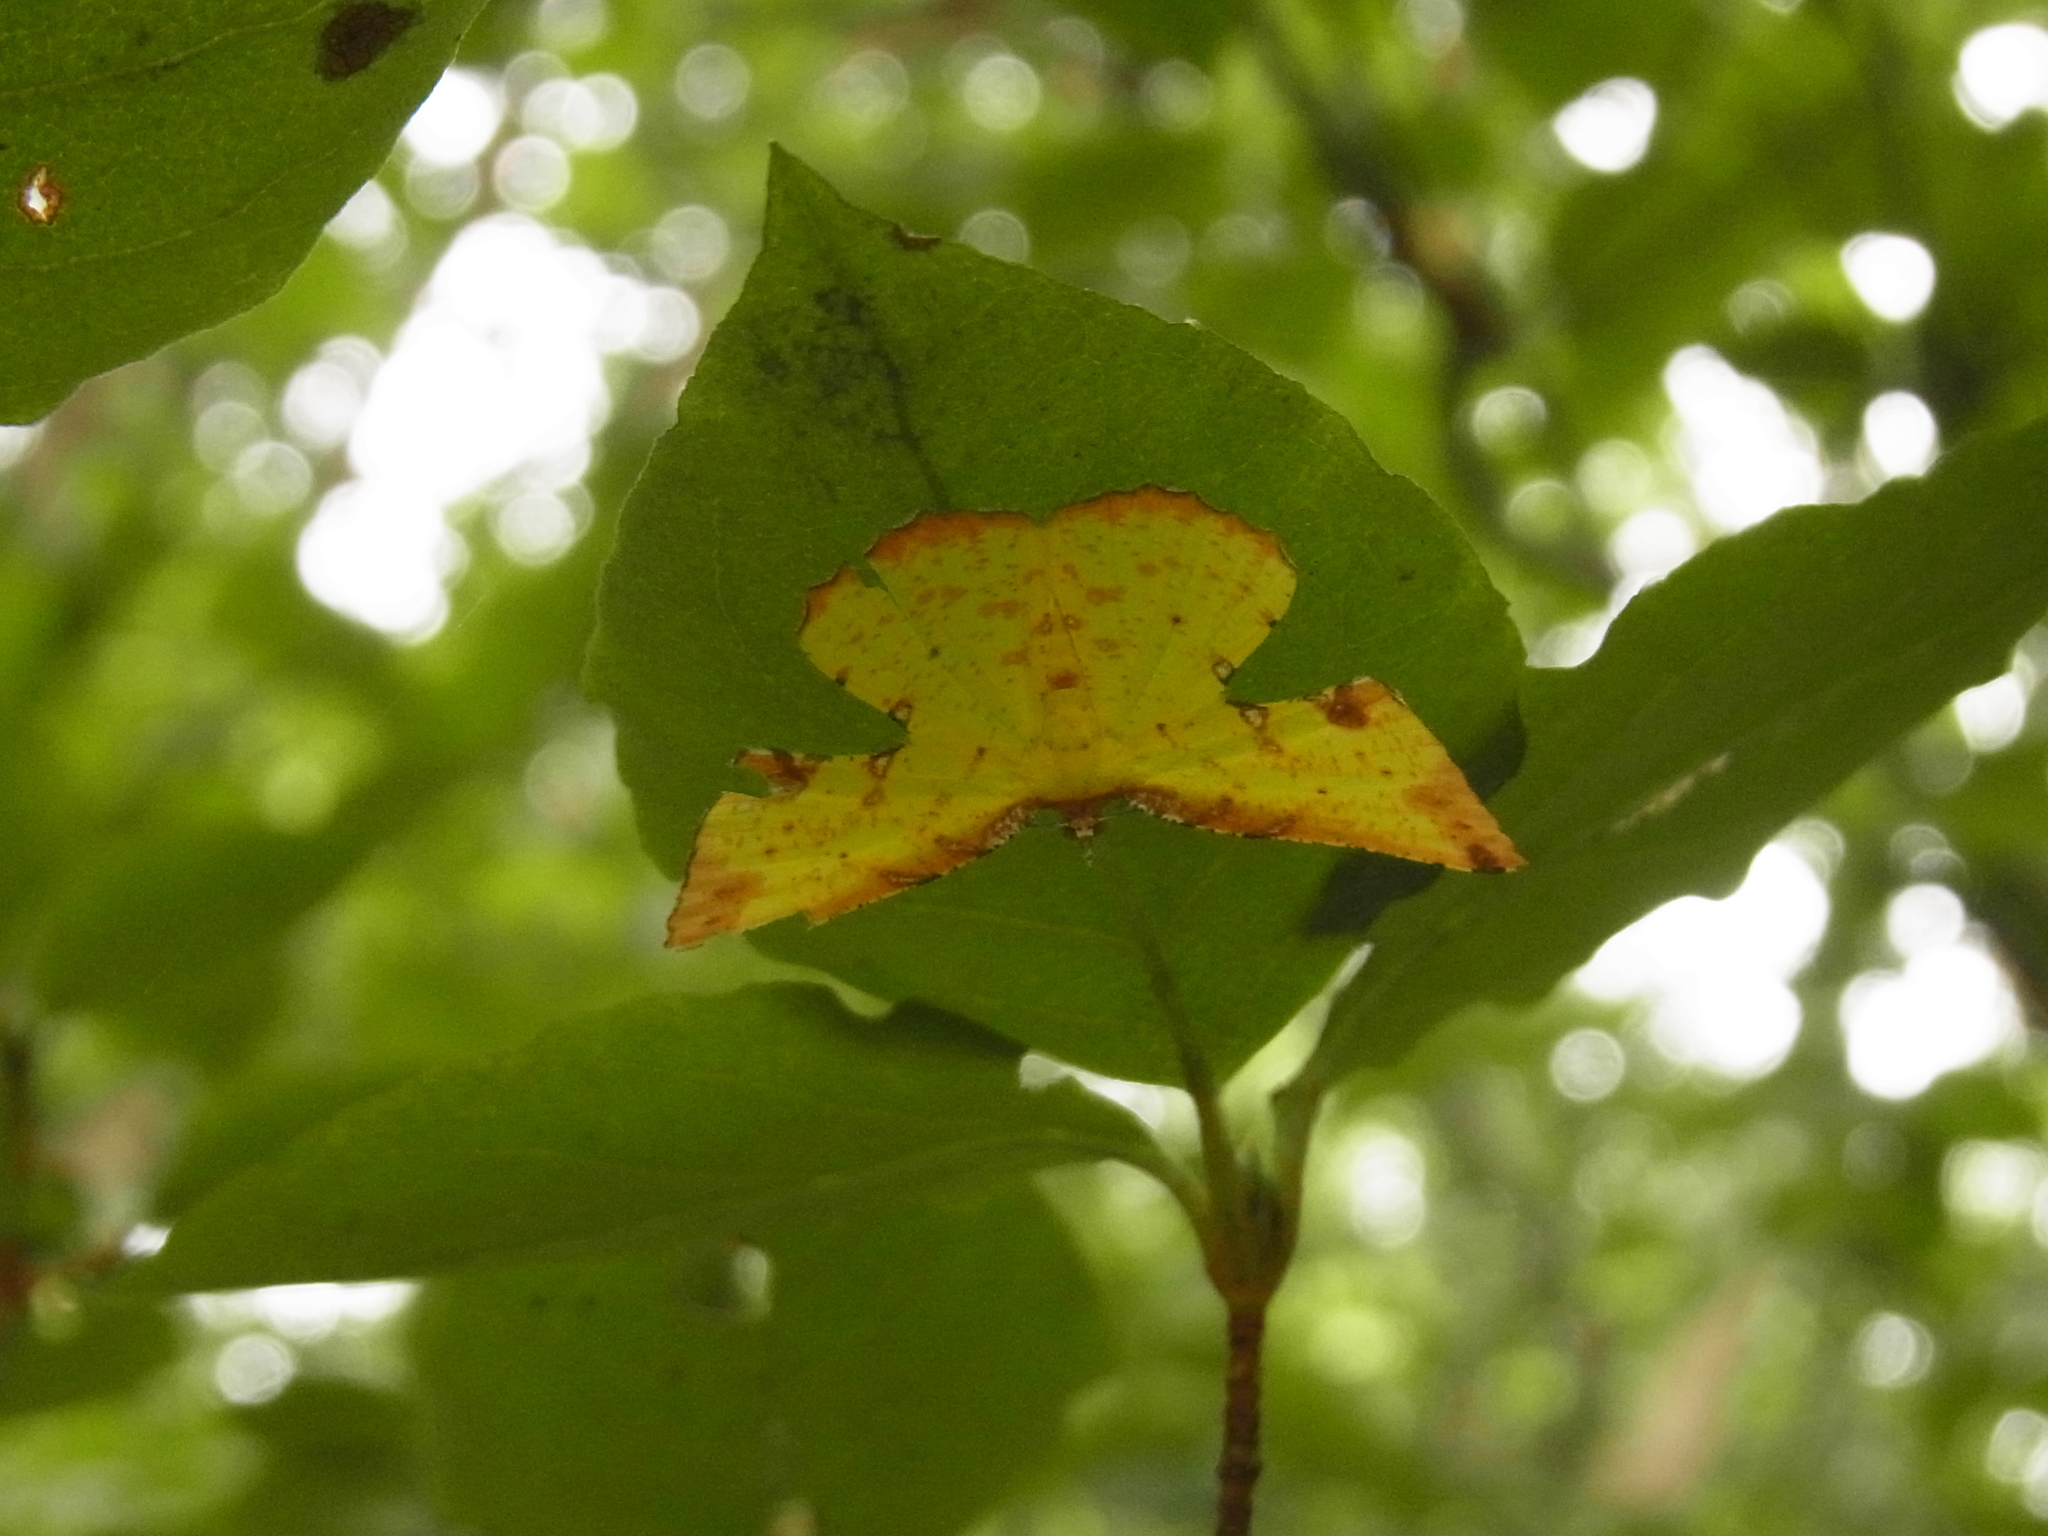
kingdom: Animalia
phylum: Arthropoda
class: Insecta
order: Lepidoptera
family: Geometridae
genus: Corymica
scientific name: Corymica arnearia
